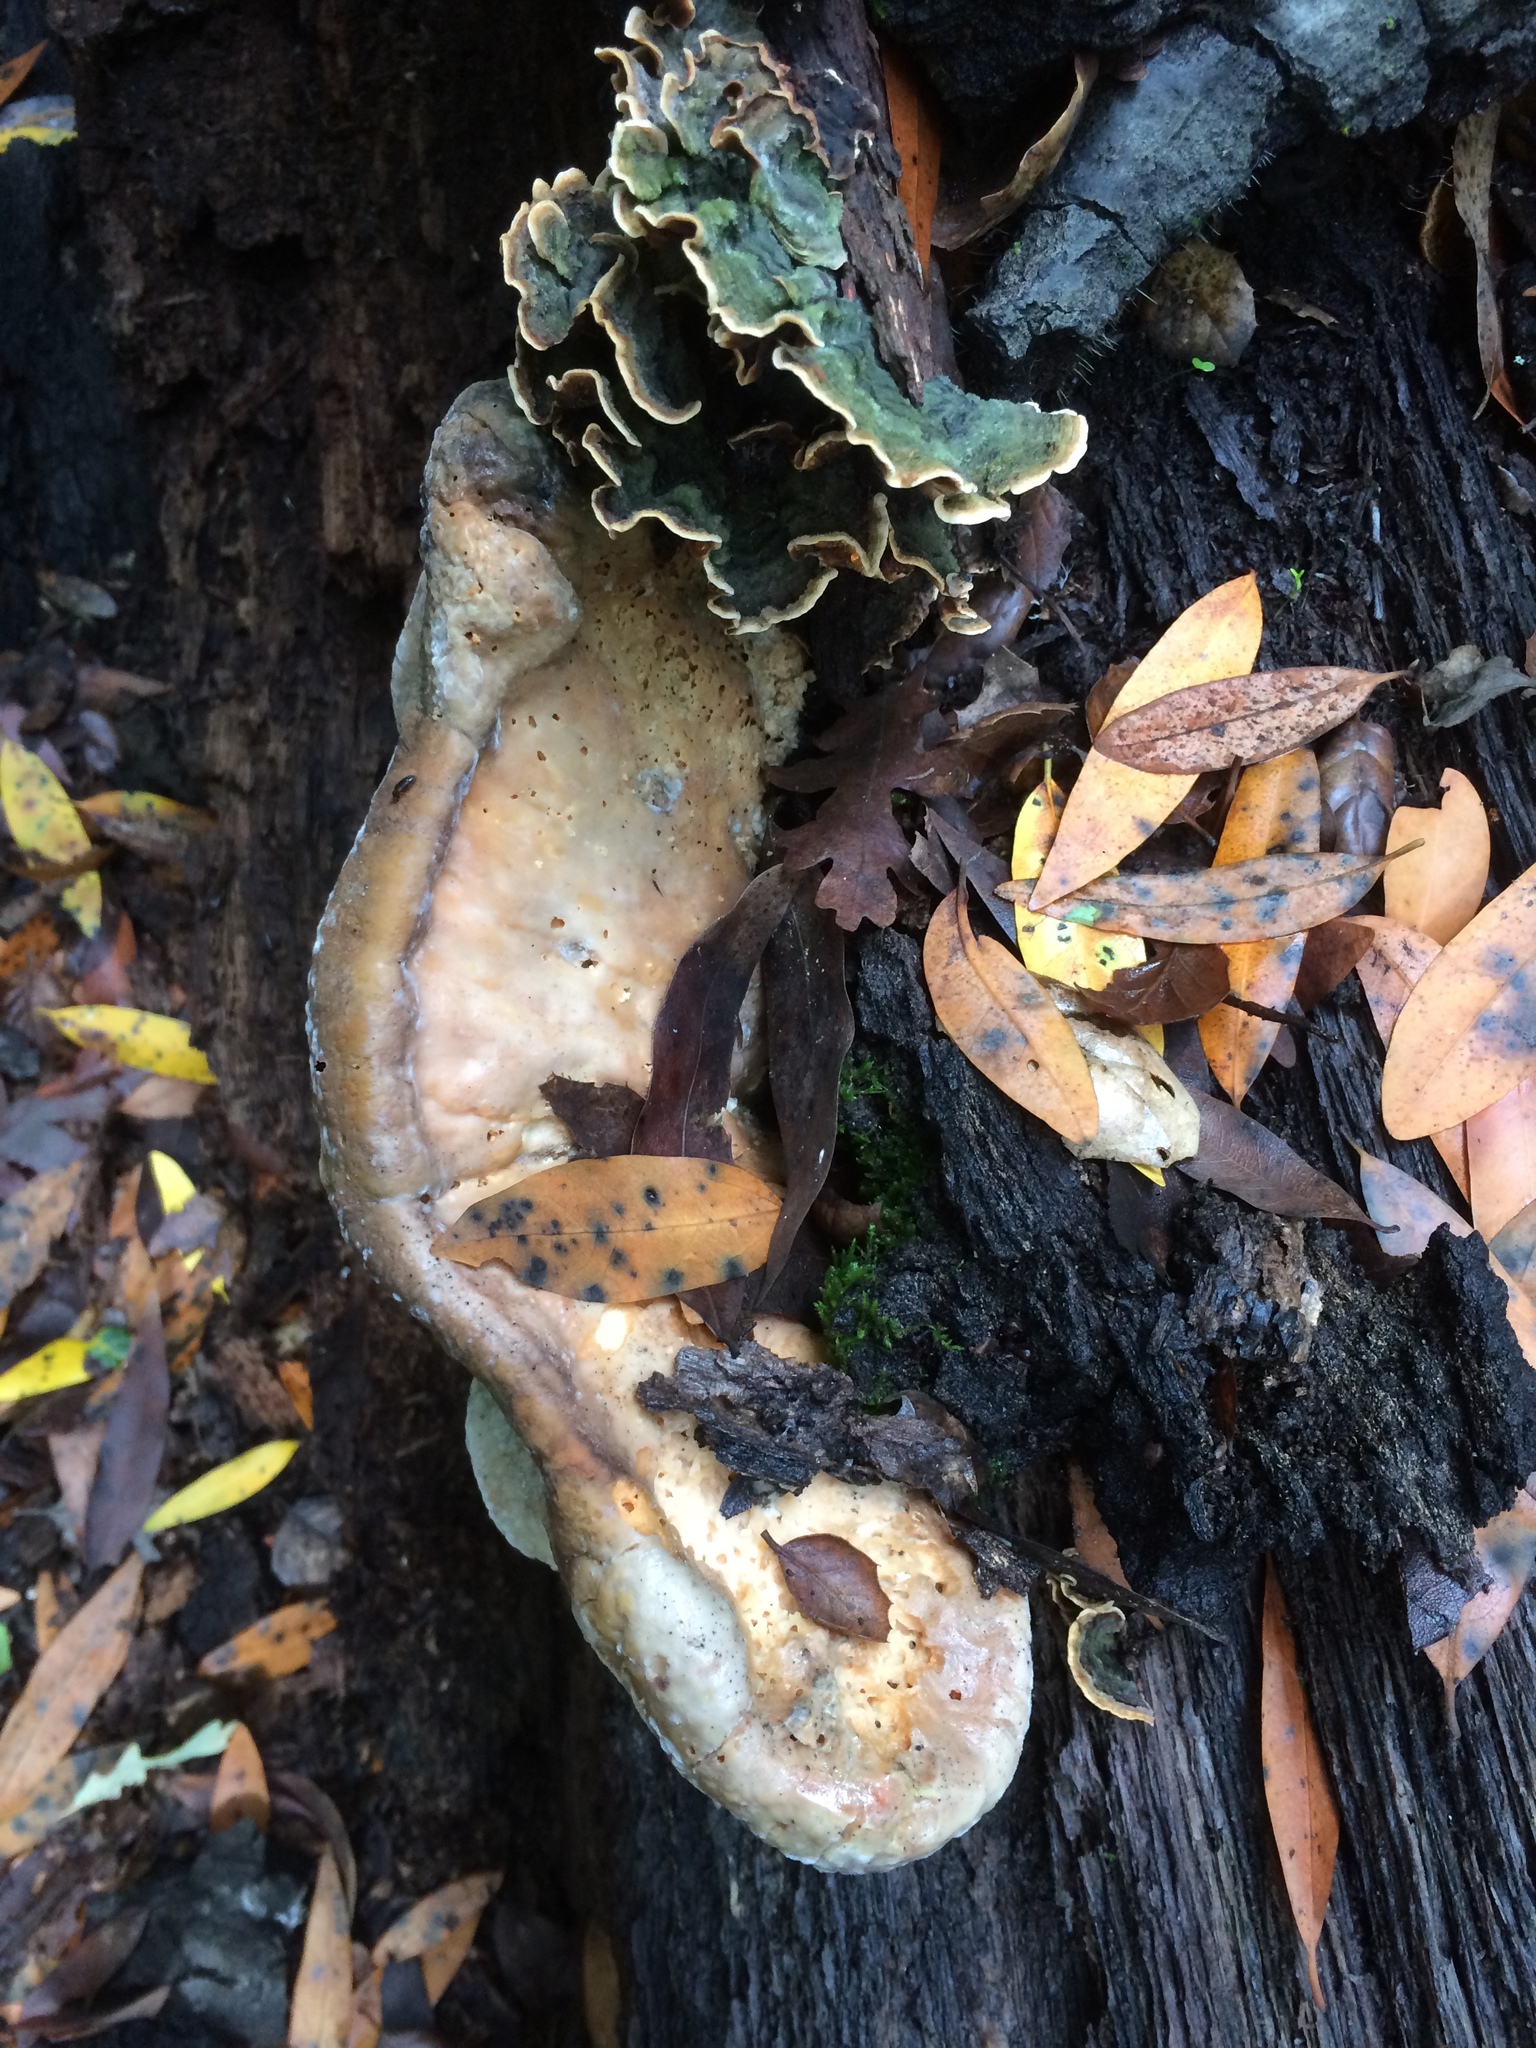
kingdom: Fungi
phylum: Basidiomycota
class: Agaricomycetes
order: Polyporales
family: Laetiporaceae
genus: Laetiporus
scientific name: Laetiporus gilbertsonii
